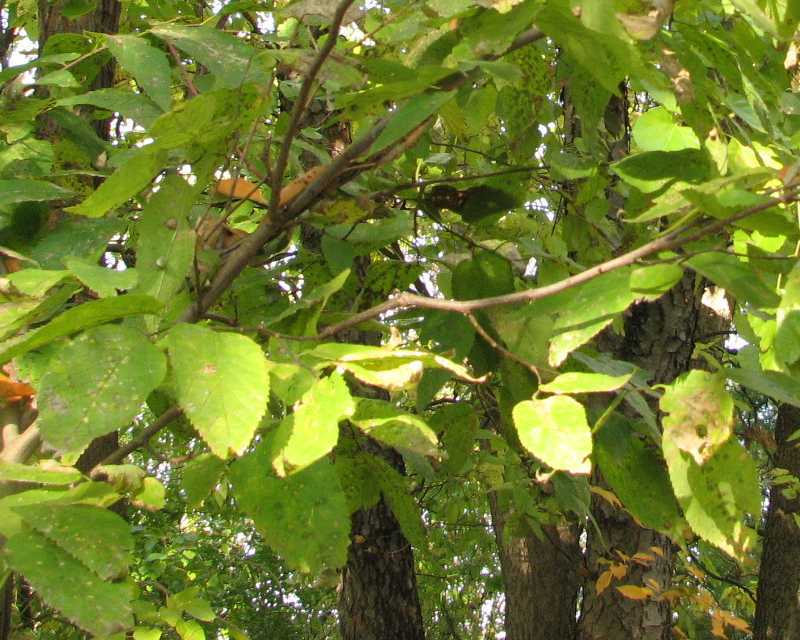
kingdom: Plantae
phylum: Tracheophyta
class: Magnoliopsida
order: Rosales
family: Cannabaceae
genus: Celtis
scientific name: Celtis occidentalis
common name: Common hackberry
